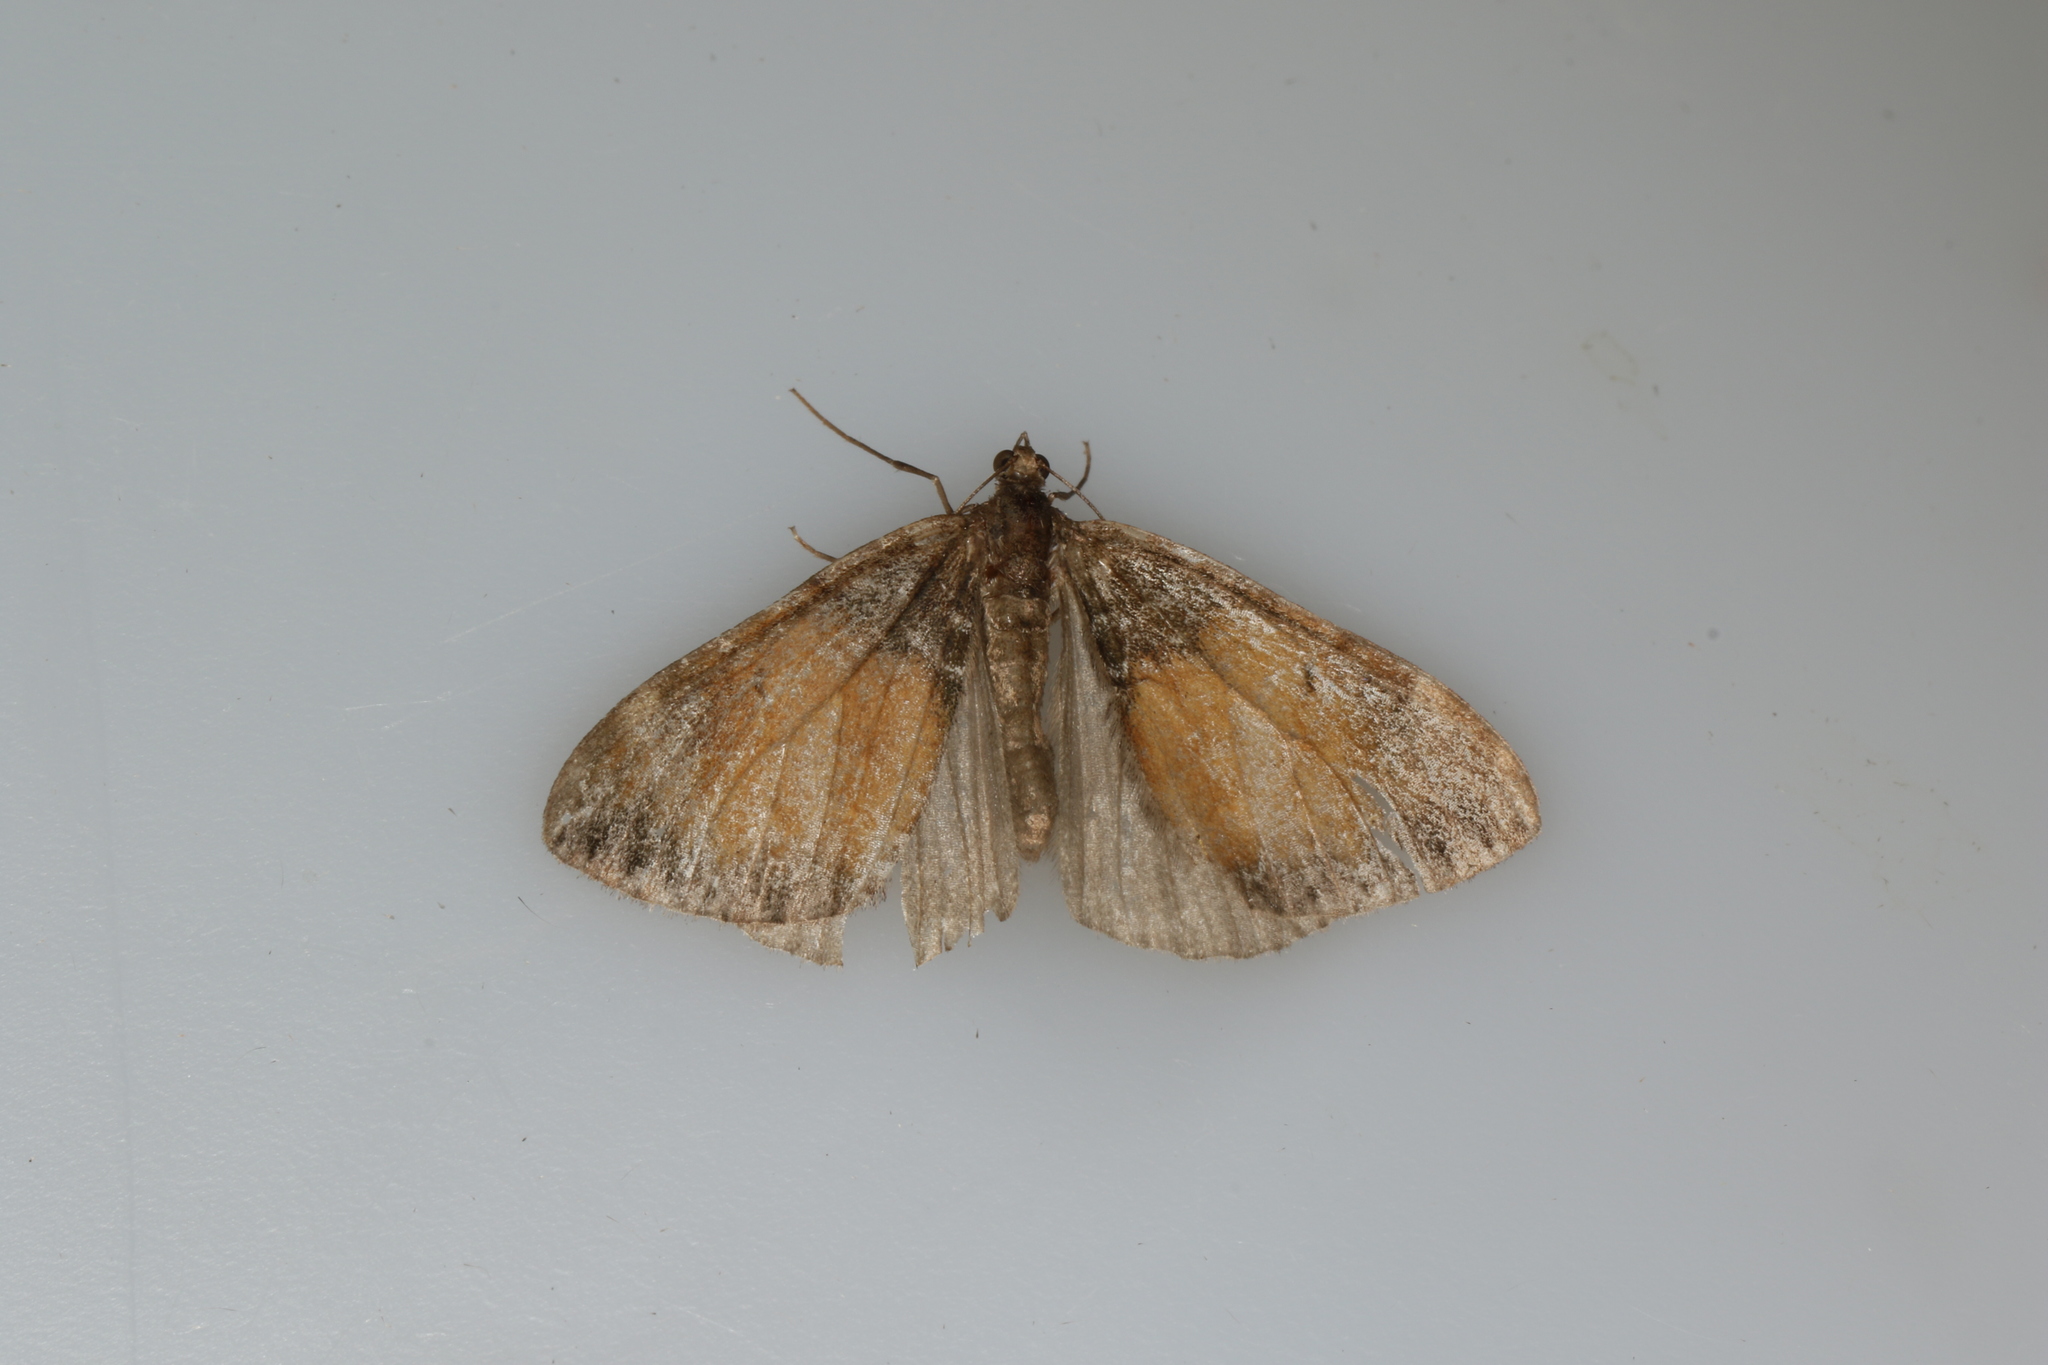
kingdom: Animalia
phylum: Arthropoda
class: Insecta
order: Lepidoptera
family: Geometridae
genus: Dysstroma
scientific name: Dysstroma truncata
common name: Common marbled carpet
